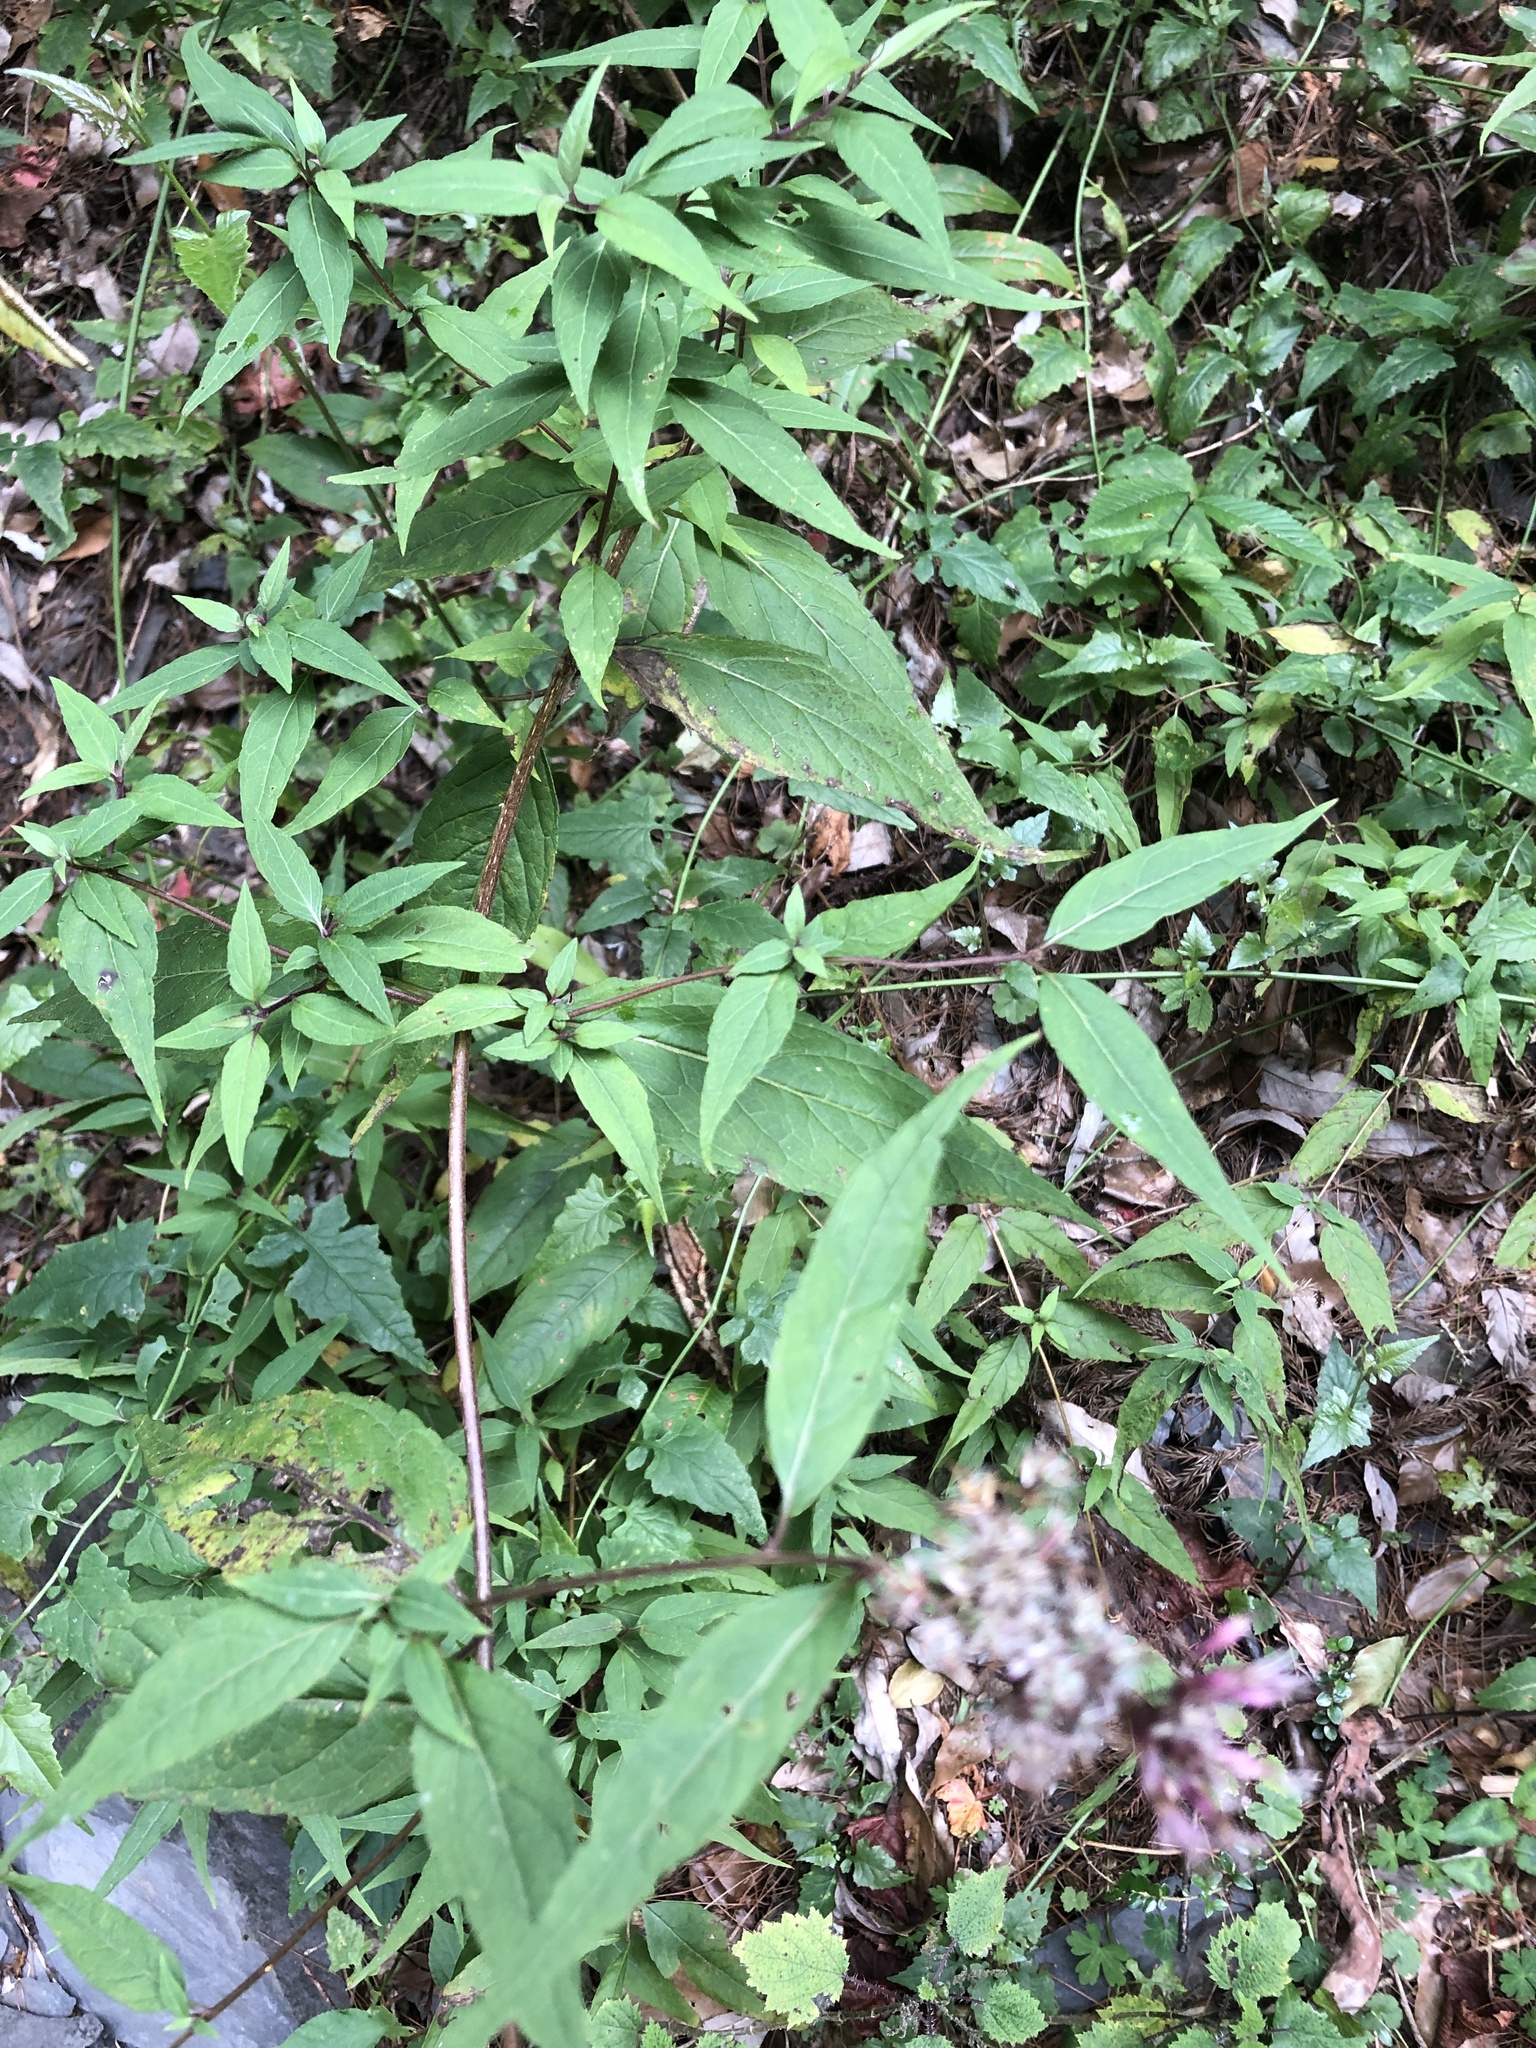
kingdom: Plantae
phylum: Tracheophyta
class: Magnoliopsida
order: Asterales
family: Asteraceae
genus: Eupatorium
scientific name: Eupatorium chinense
